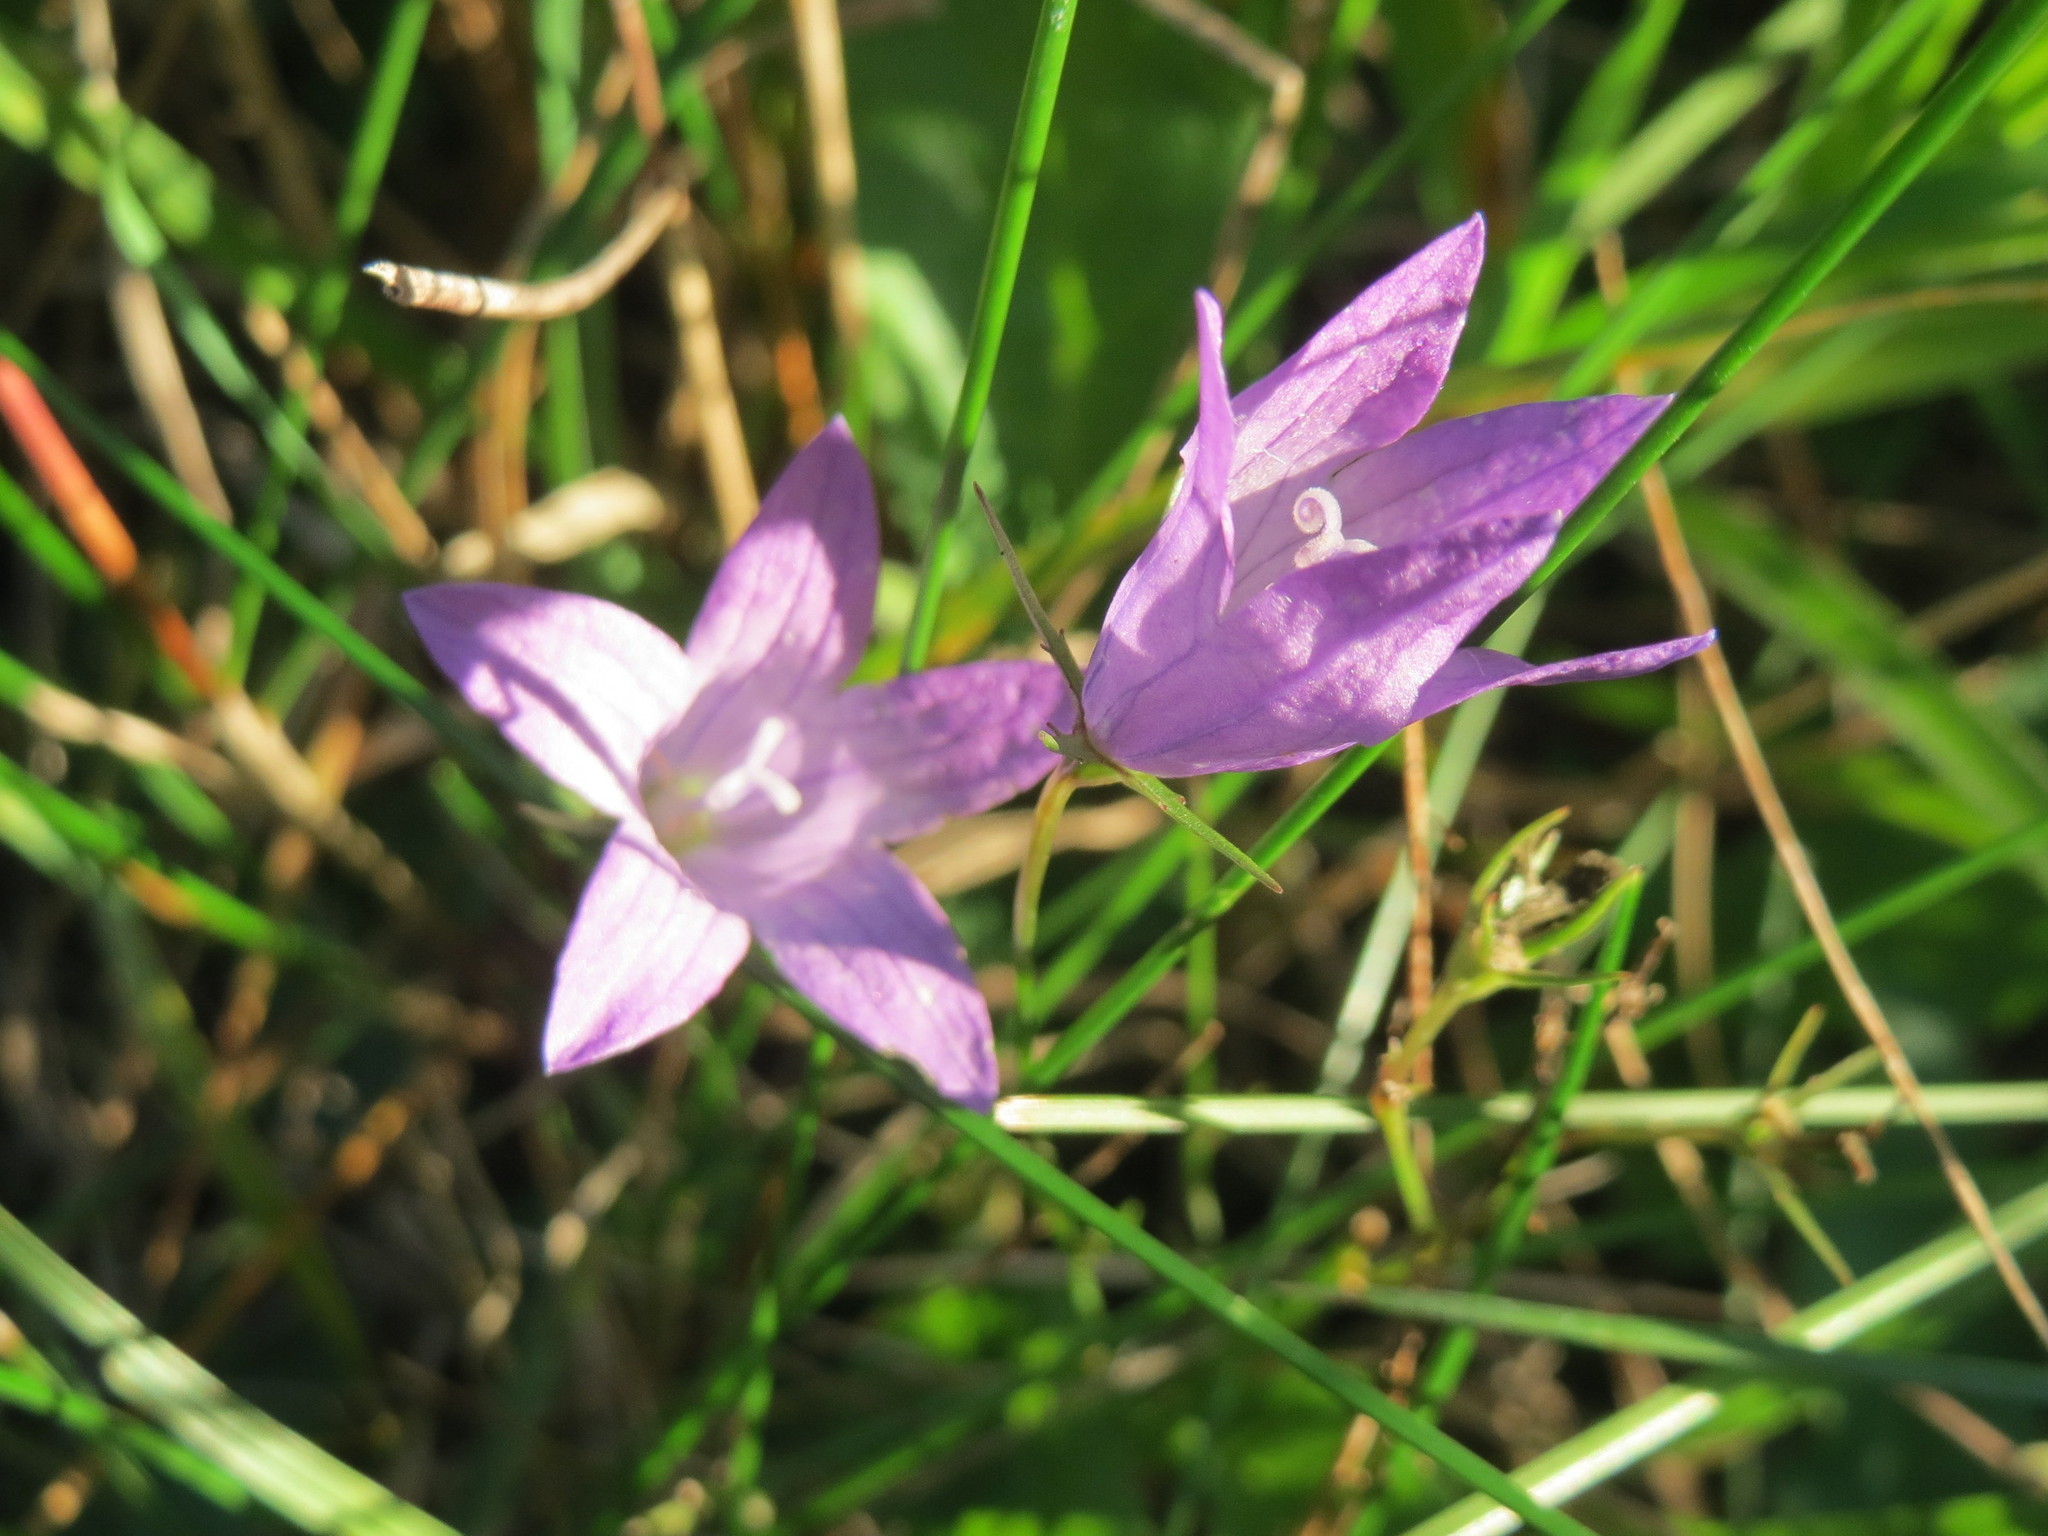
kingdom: Plantae
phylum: Tracheophyta
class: Magnoliopsida
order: Asterales
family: Campanulaceae
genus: Campanula
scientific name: Campanula rapunculus
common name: Rampion bellflower
